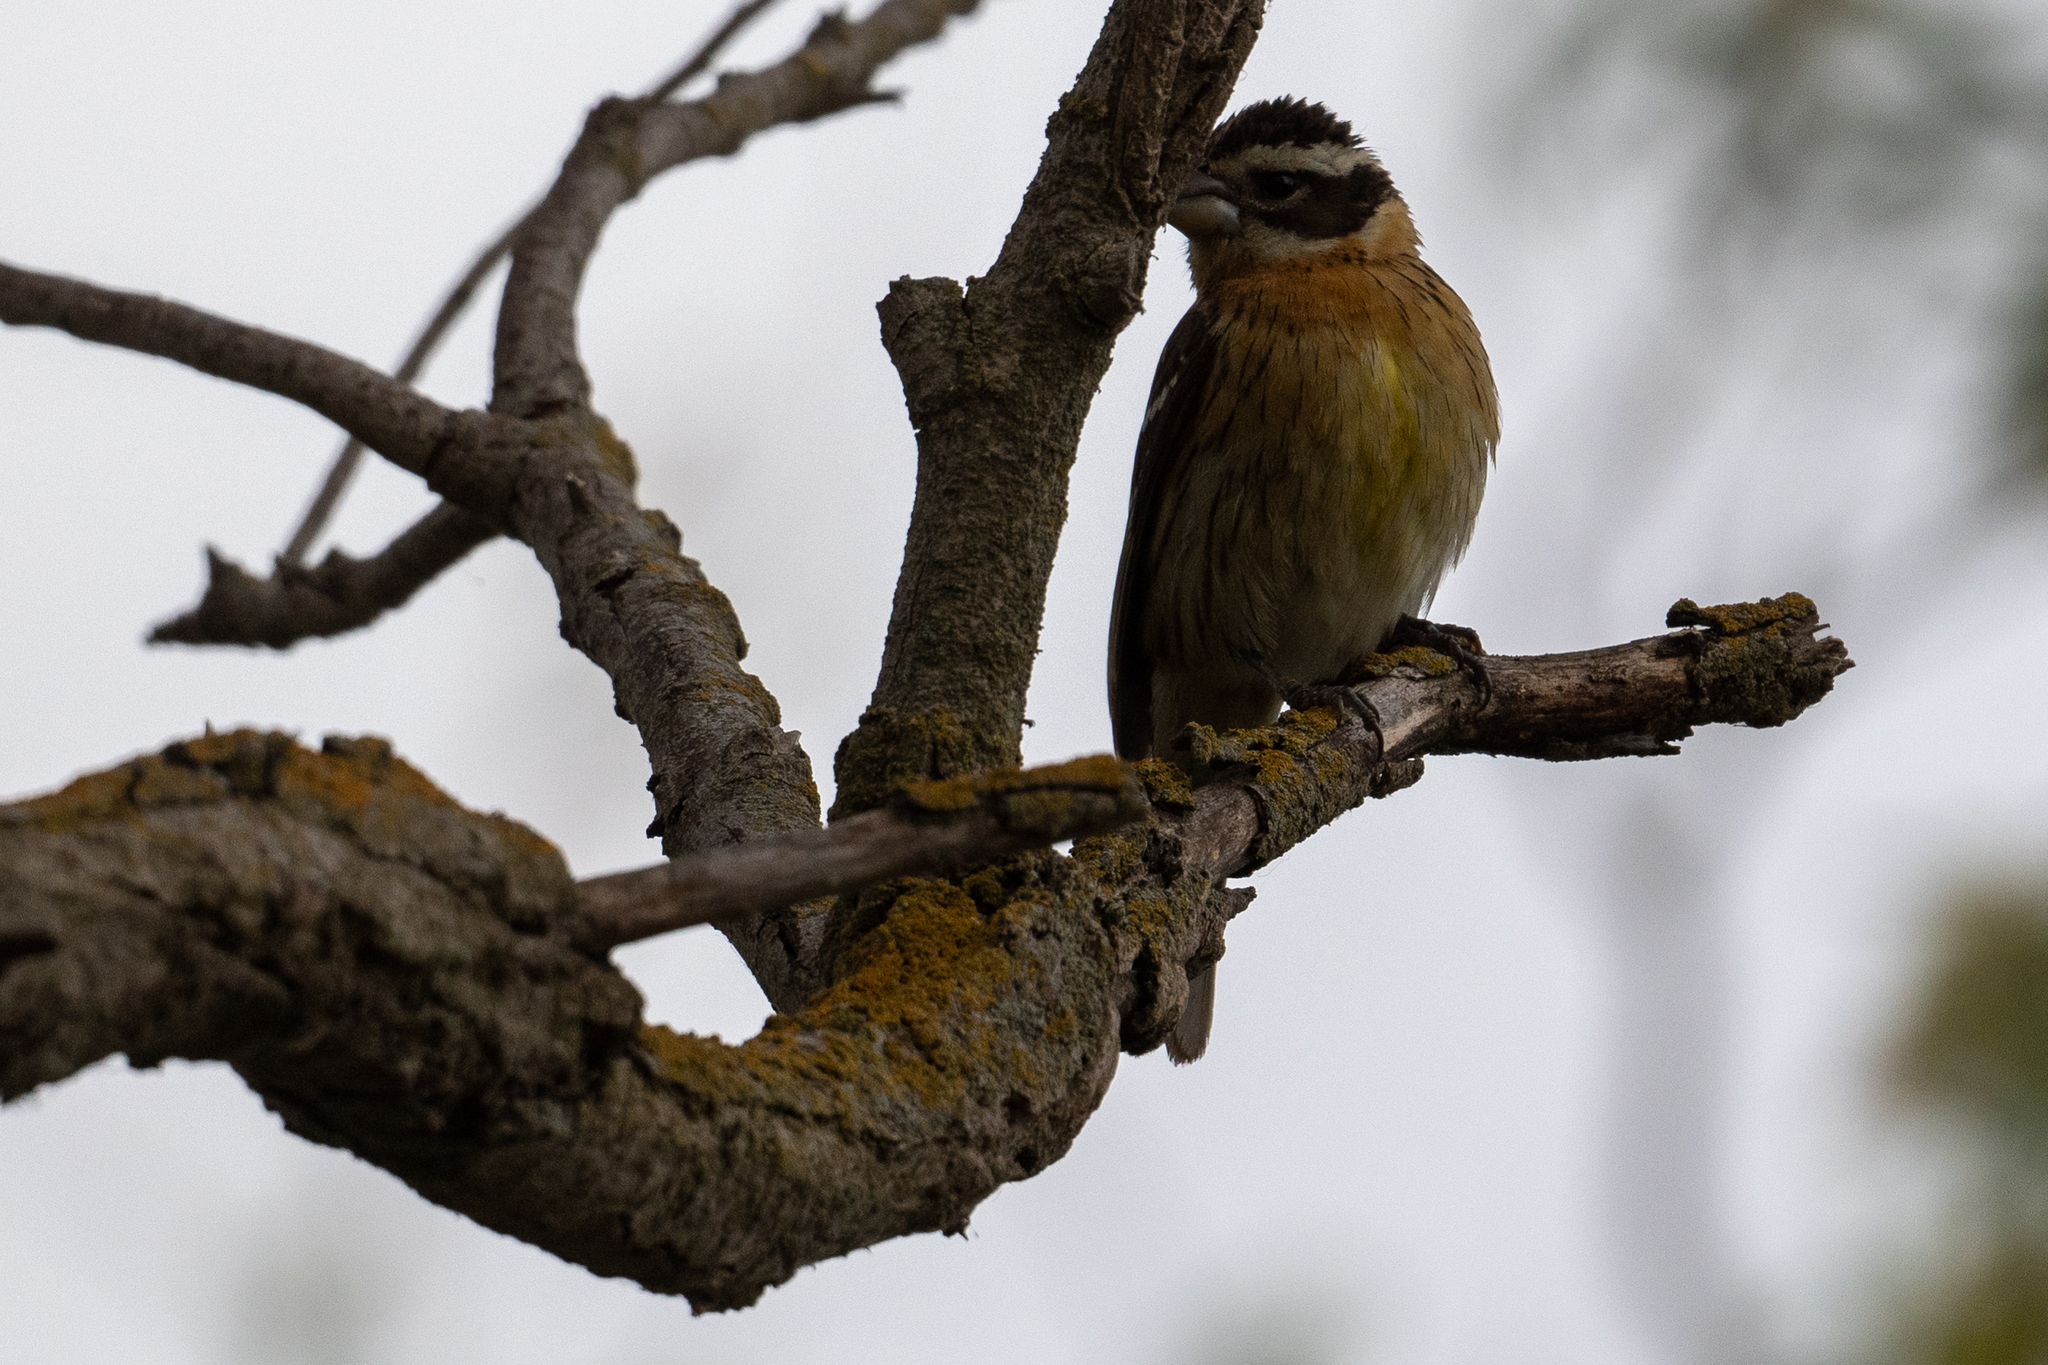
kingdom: Animalia
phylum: Chordata
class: Aves
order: Passeriformes
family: Cardinalidae
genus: Pheucticus
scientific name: Pheucticus melanocephalus
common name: Black-headed grosbeak
